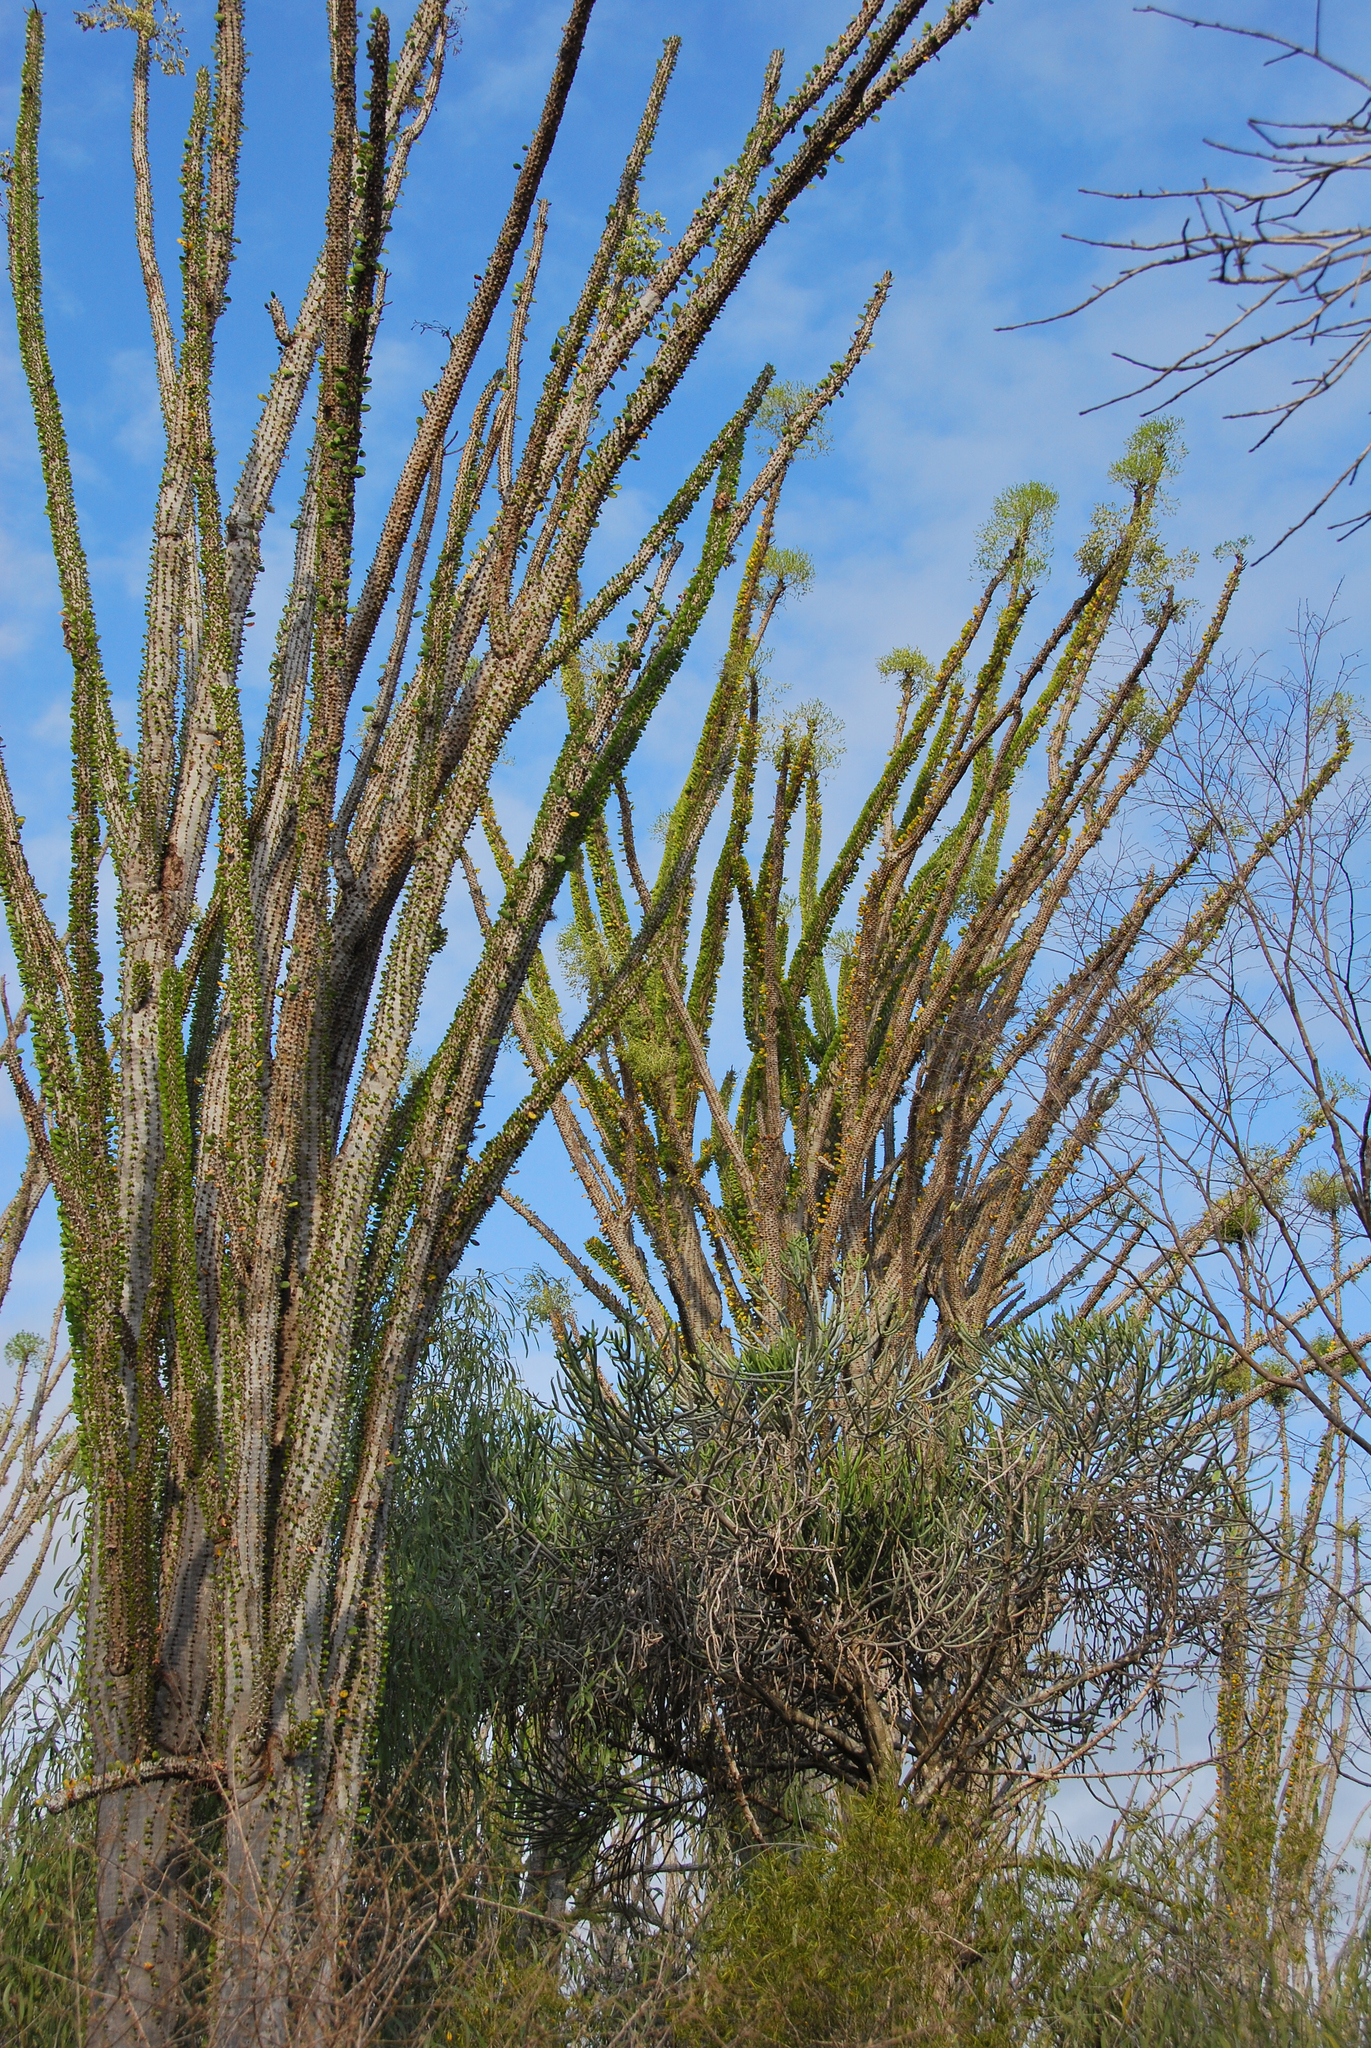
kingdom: Plantae
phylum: Tracheophyta
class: Magnoliopsida
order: Caryophyllales
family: Didiereaceae
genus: Alluaudia
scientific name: Alluaudia procera
